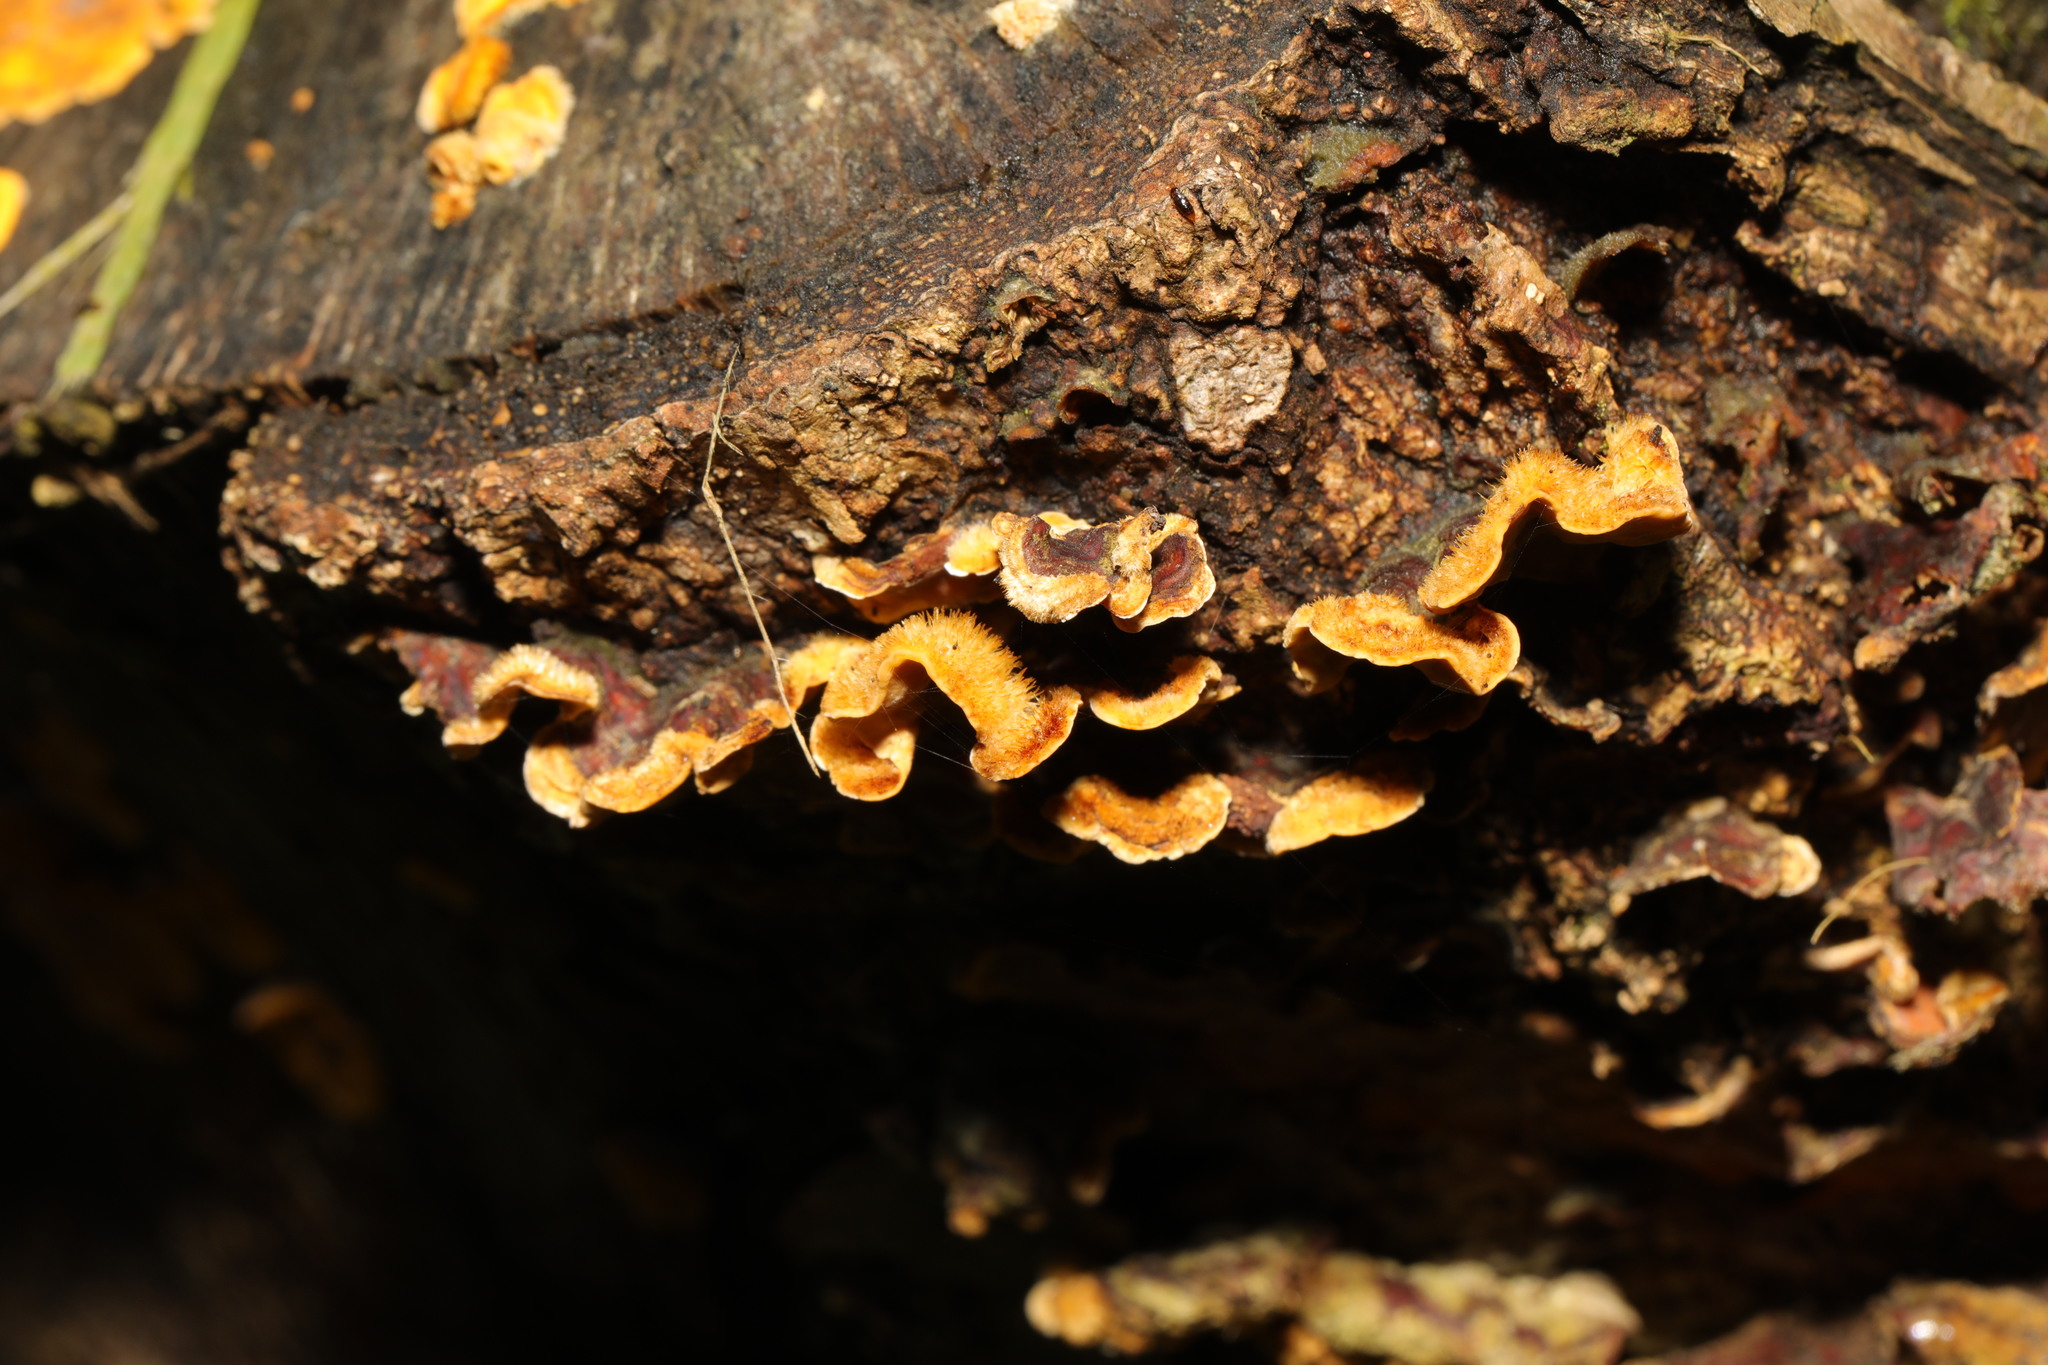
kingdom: Fungi
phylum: Basidiomycota
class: Agaricomycetes
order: Russulales
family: Stereaceae
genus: Stereum
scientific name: Stereum hirsutum
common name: Hairy curtain crust
